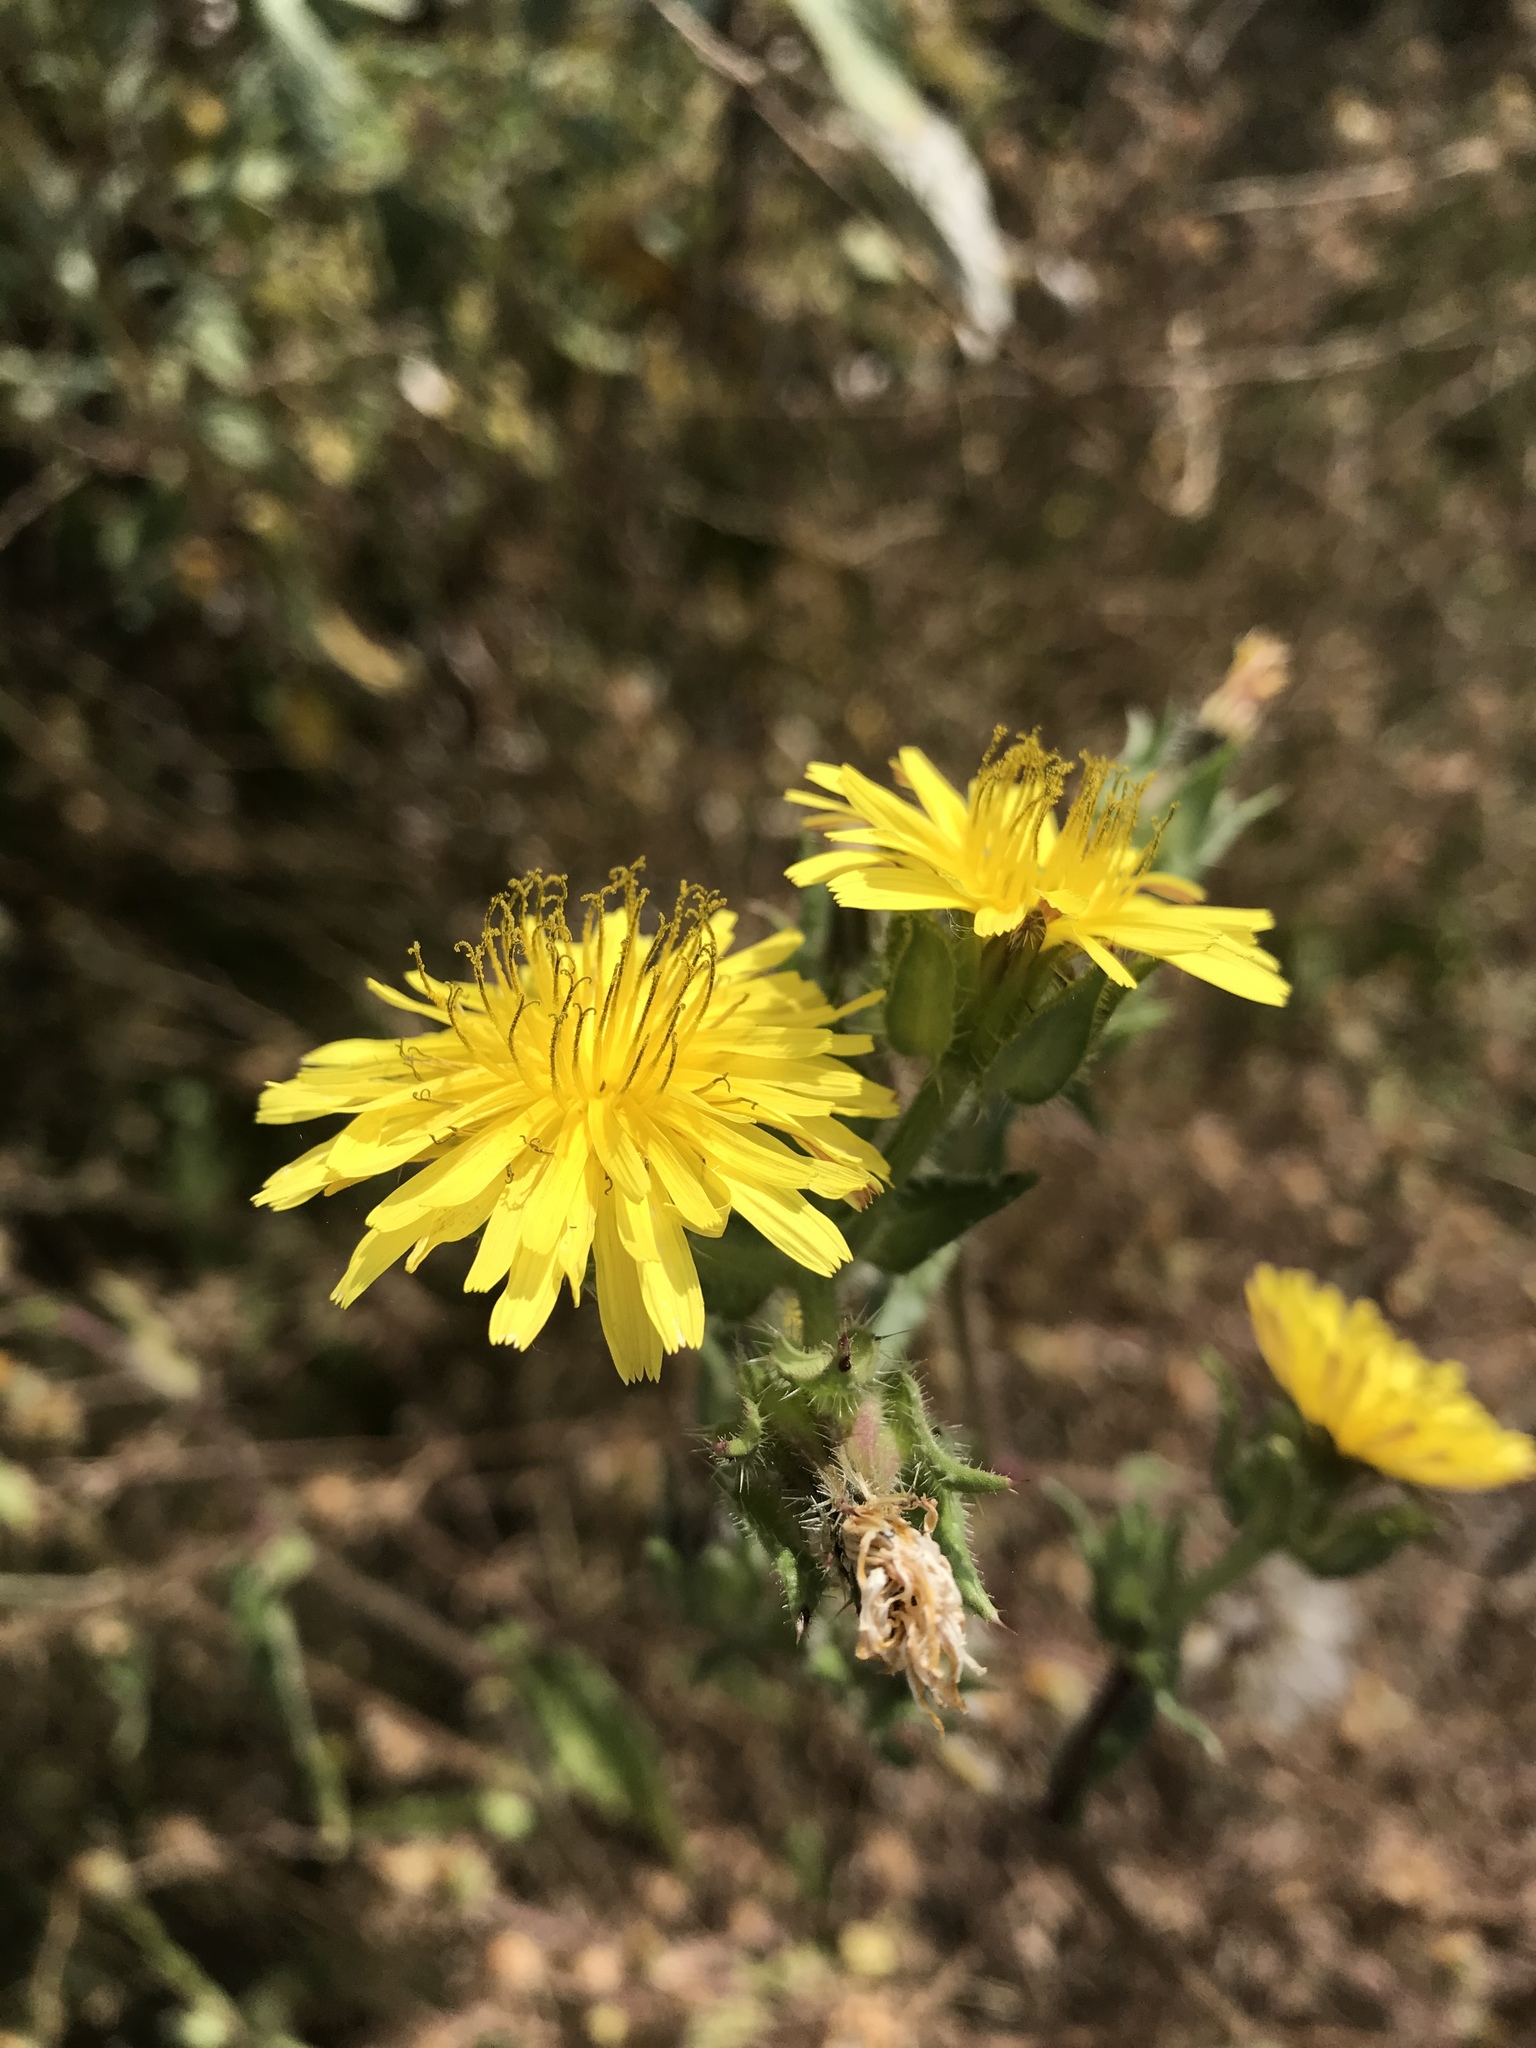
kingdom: Plantae
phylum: Tracheophyta
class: Magnoliopsida
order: Asterales
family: Asteraceae
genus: Helminthotheca
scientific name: Helminthotheca echioides
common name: Ox-tongue
